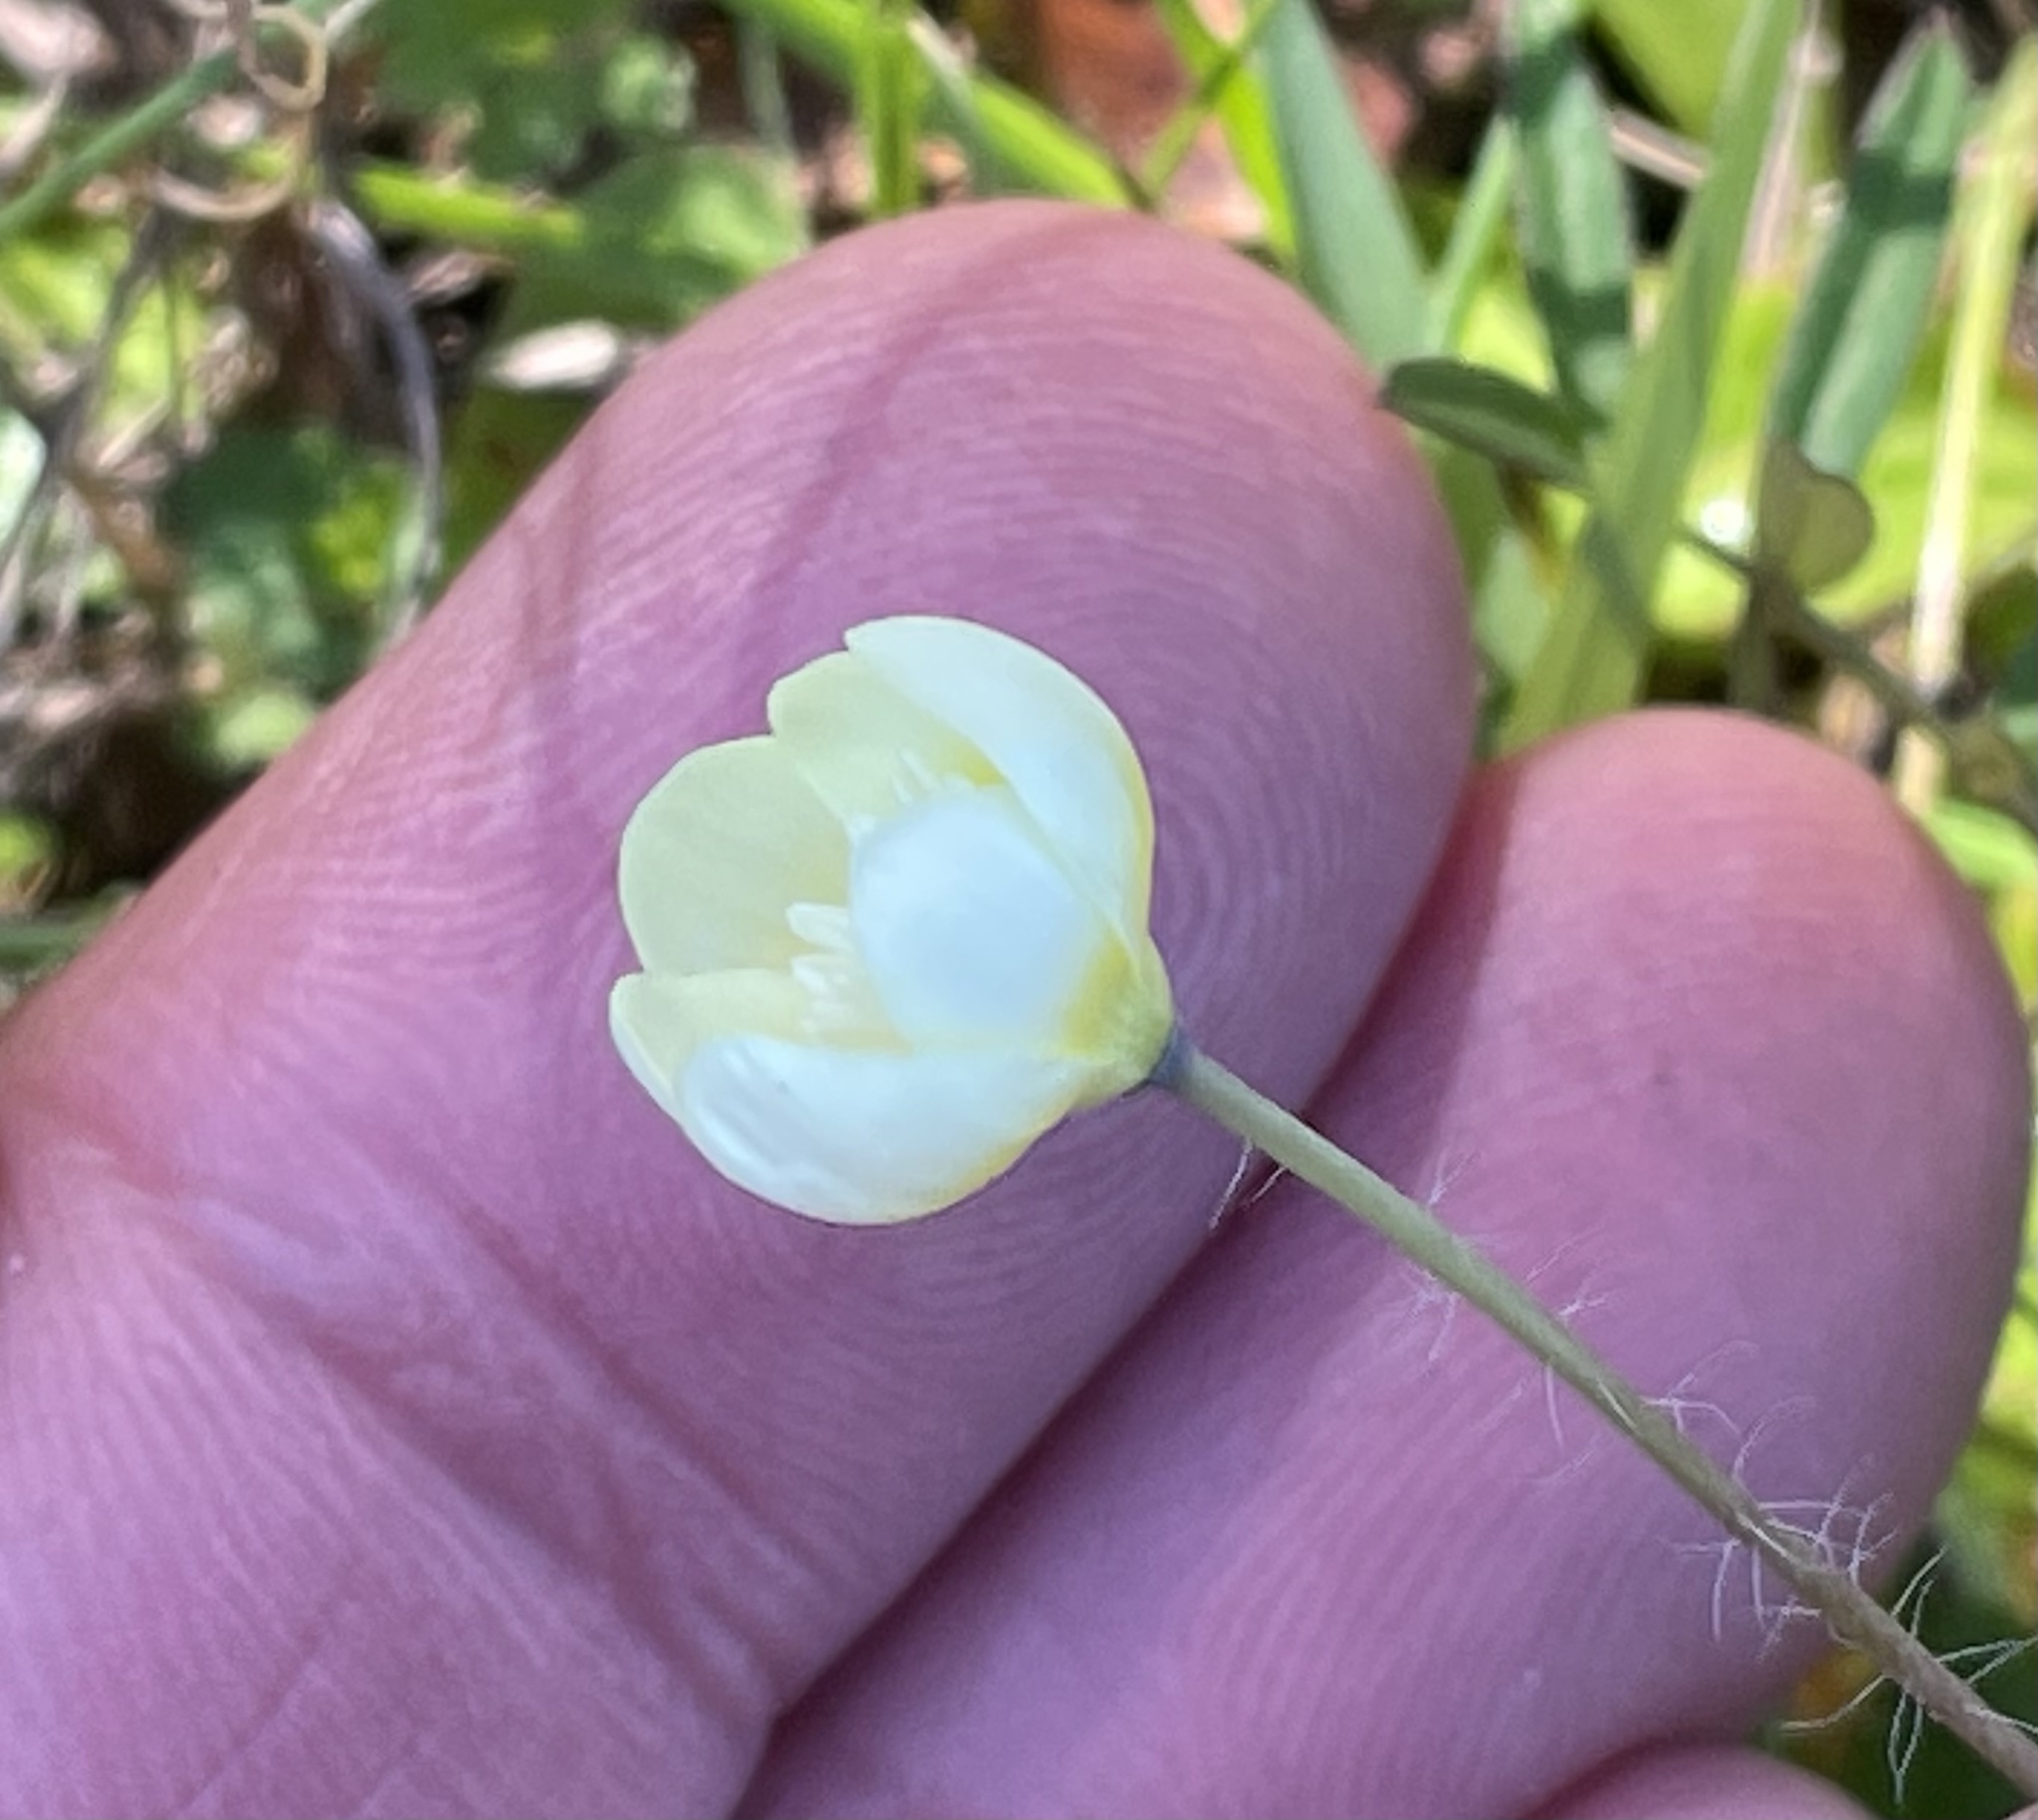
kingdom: Plantae
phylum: Tracheophyta
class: Magnoliopsida
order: Ranunculales
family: Papaveraceae
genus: Platystemon
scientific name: Platystemon californicus
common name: Cream-cups
